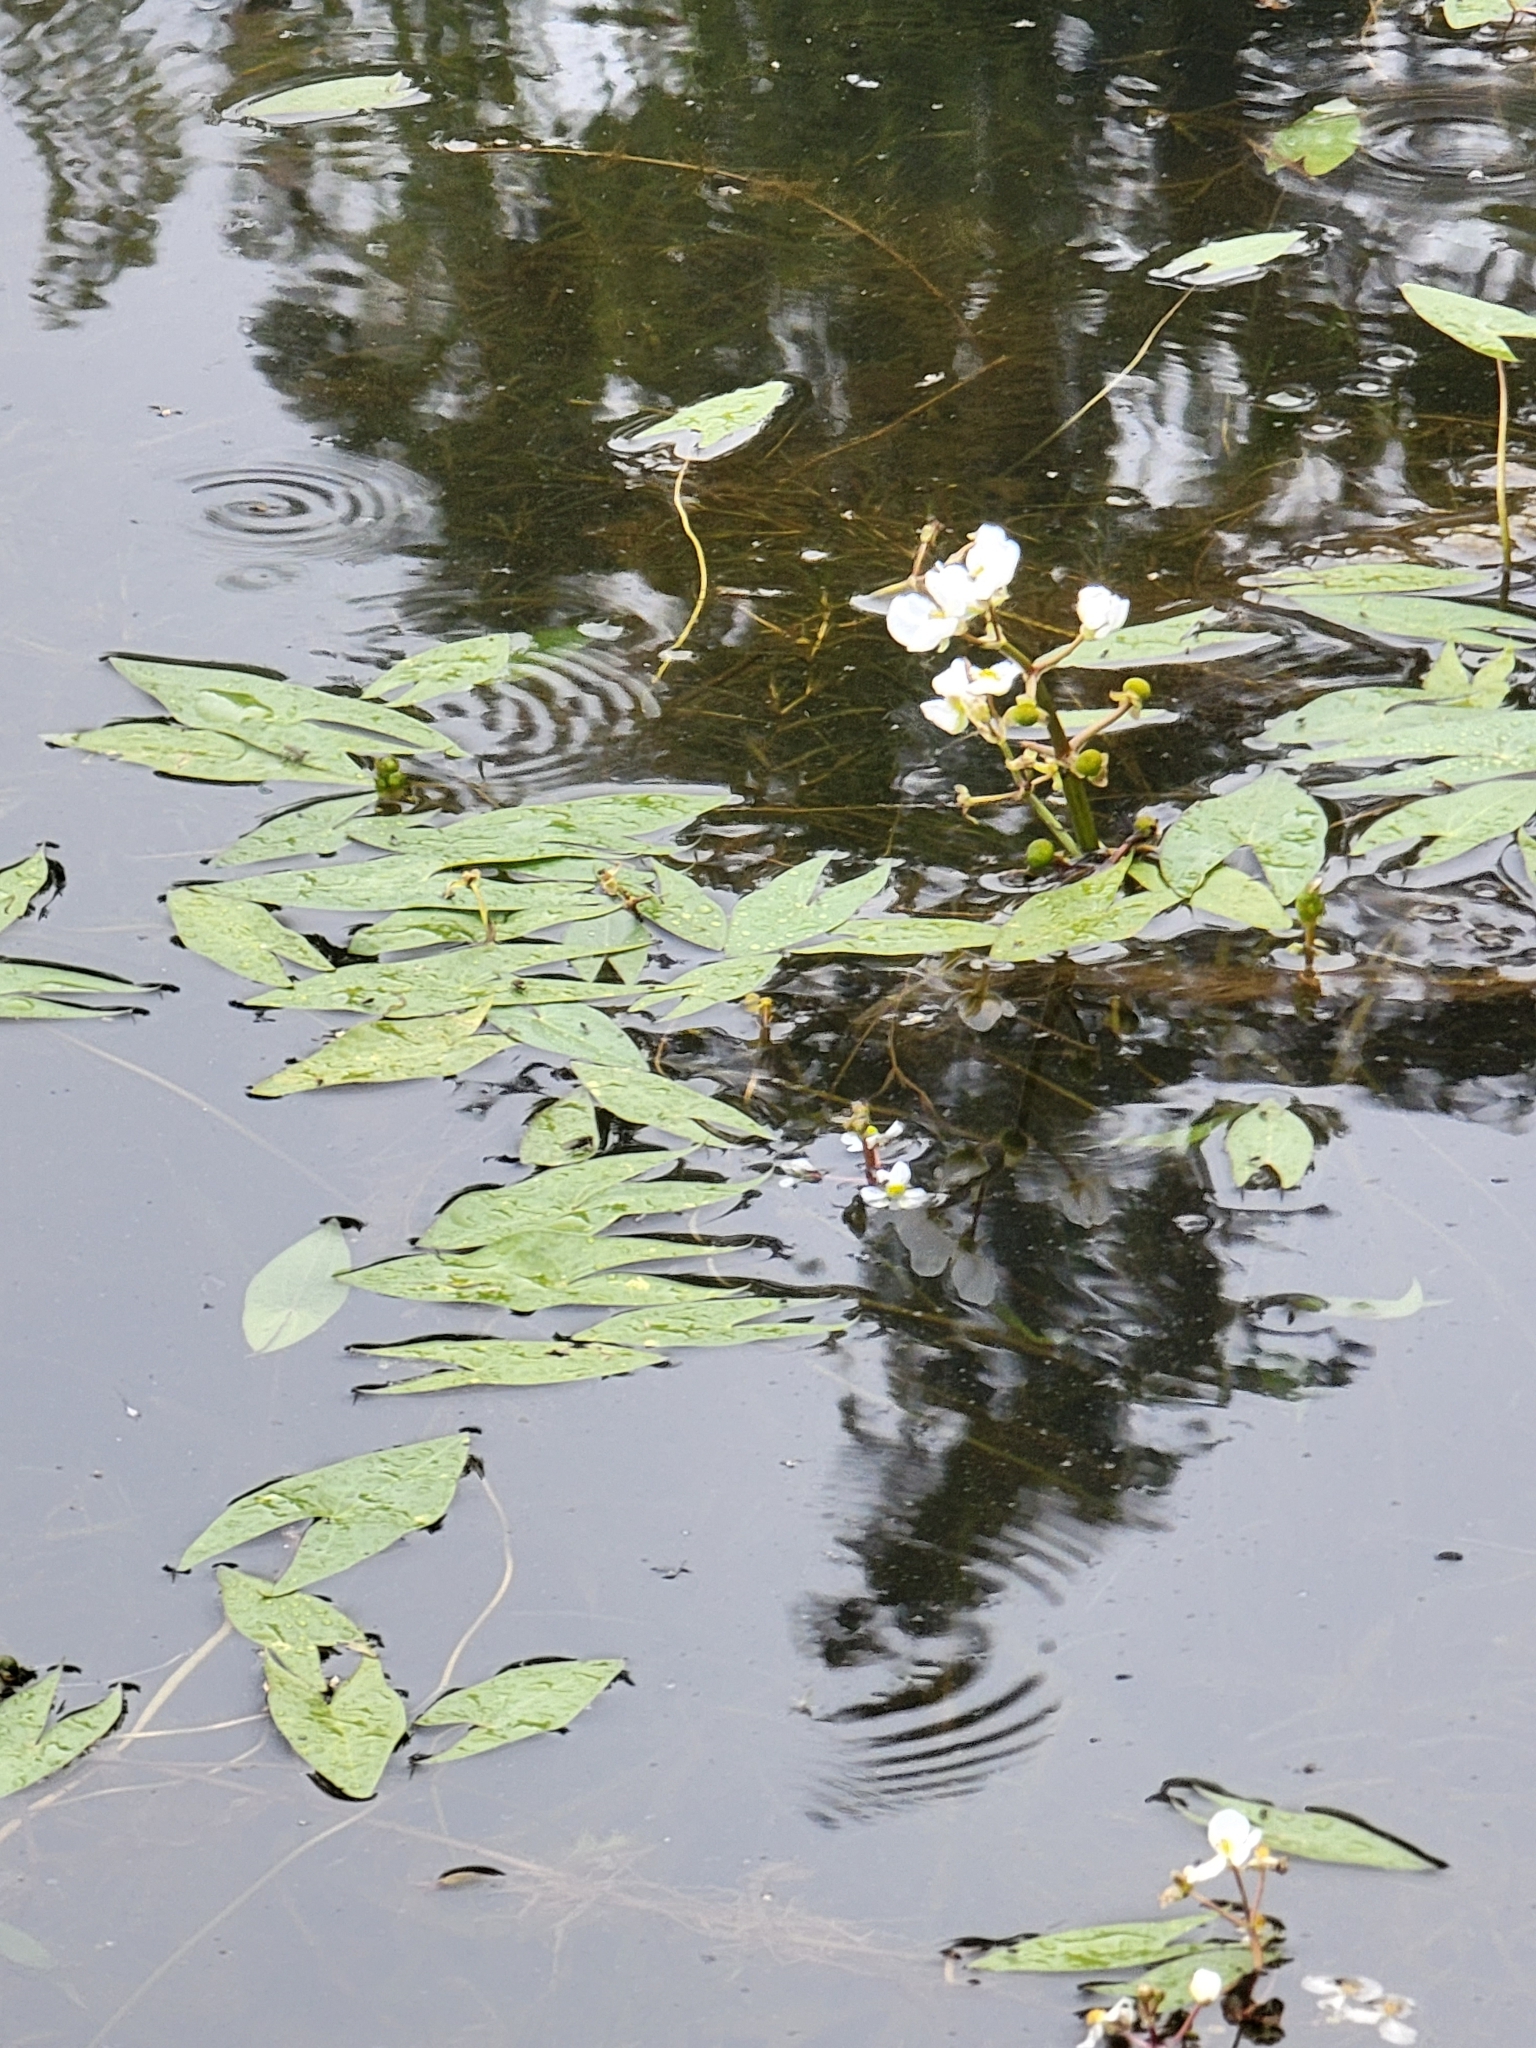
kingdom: Plantae
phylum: Tracheophyta
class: Liliopsida
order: Alismatales
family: Alismataceae
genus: Sagittaria
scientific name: Sagittaria cuneata
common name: Northern arrowhead
